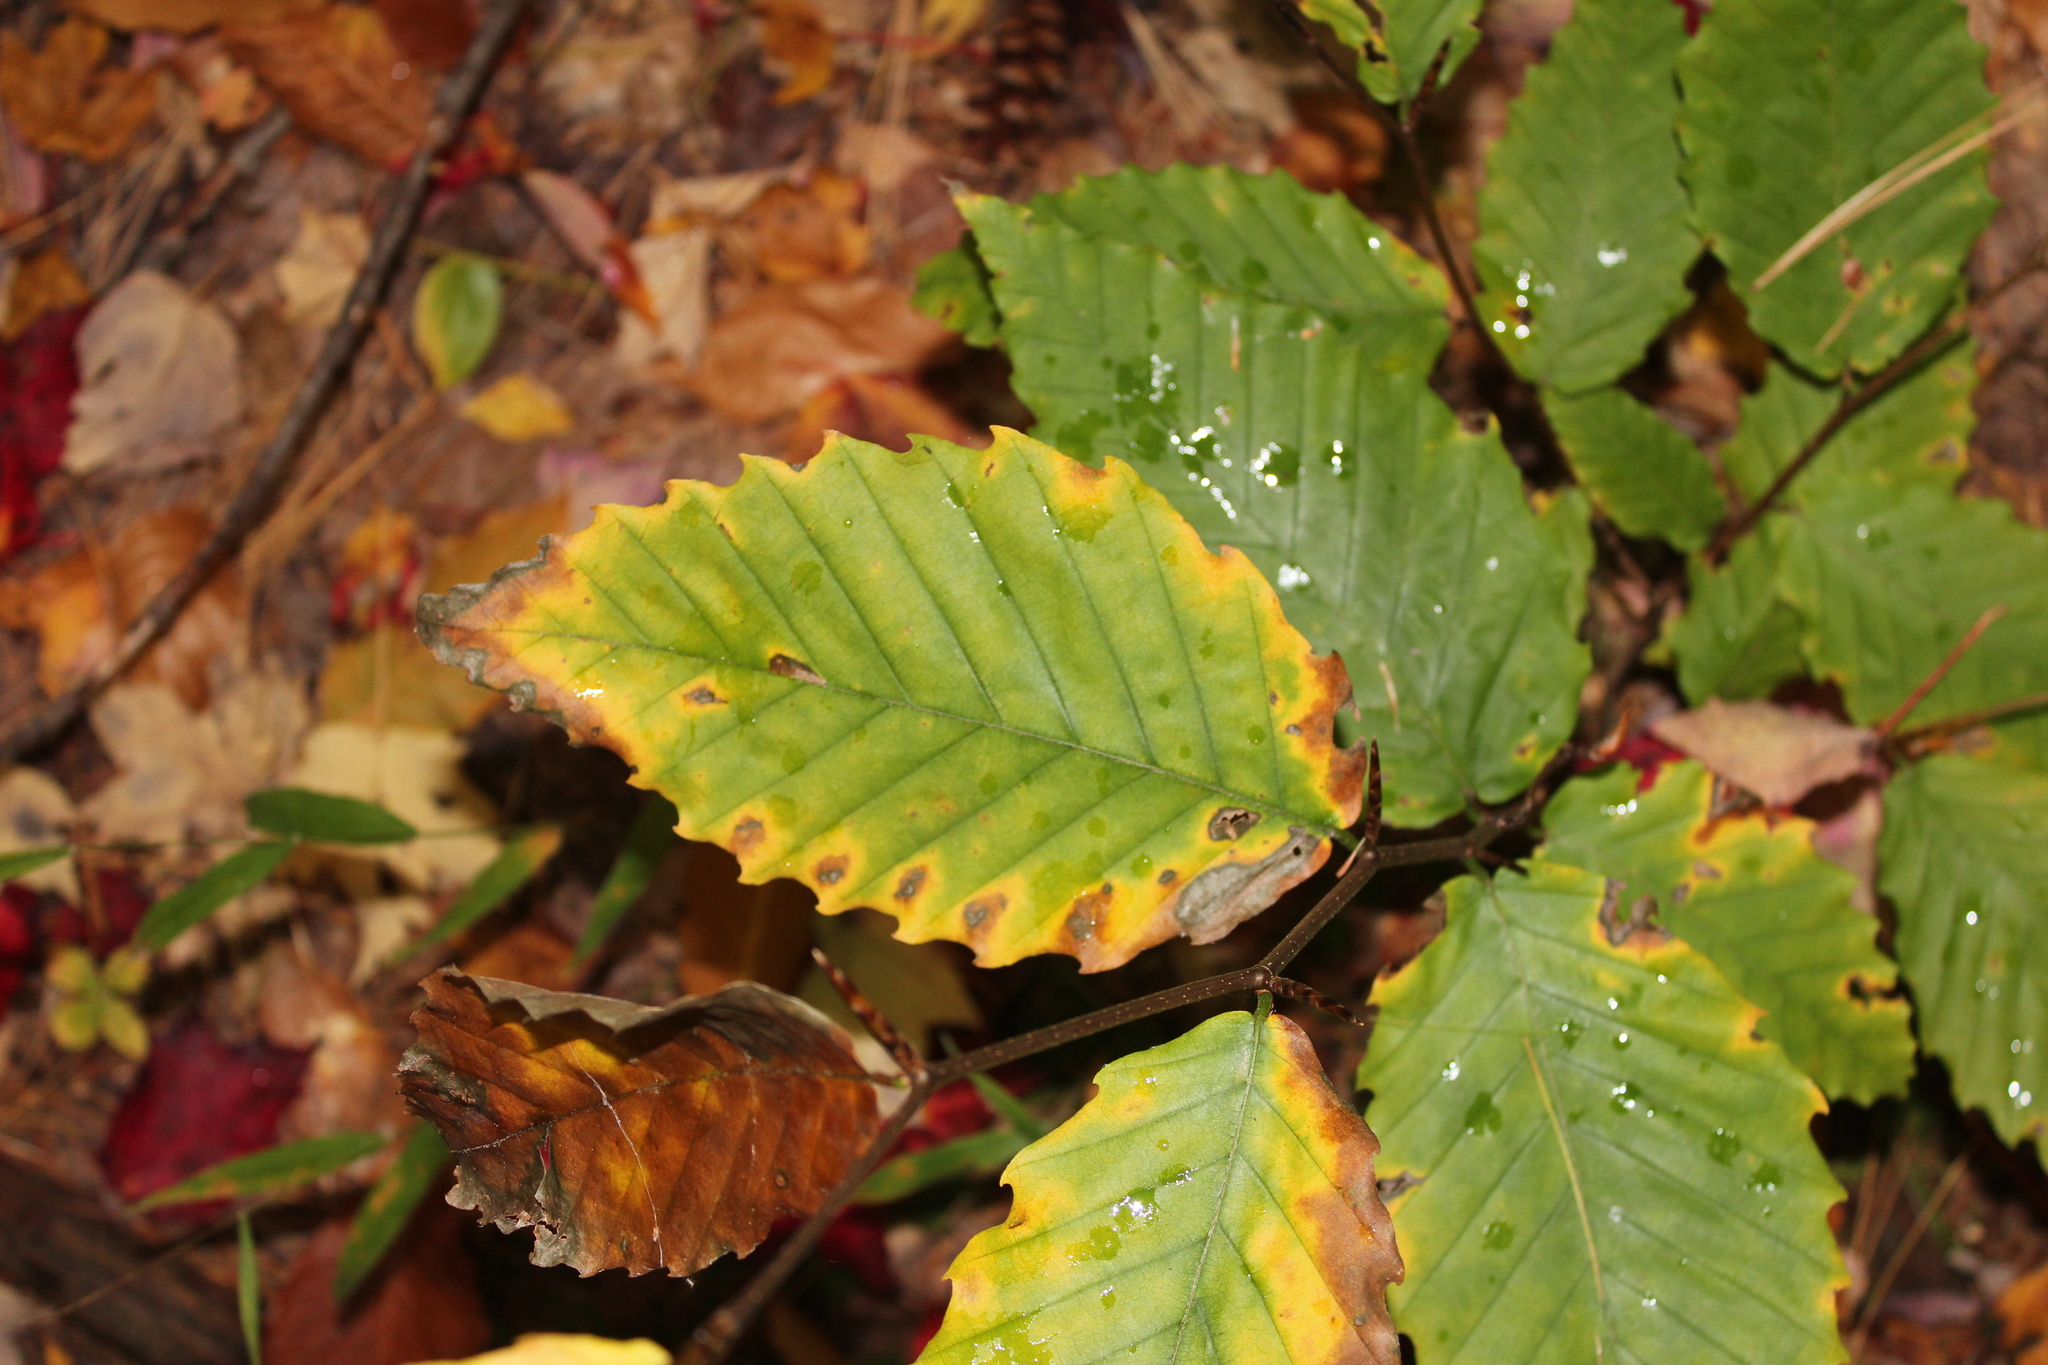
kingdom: Plantae
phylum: Tracheophyta
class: Magnoliopsida
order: Fagales
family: Fagaceae
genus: Fagus
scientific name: Fagus grandifolia
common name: American beech
